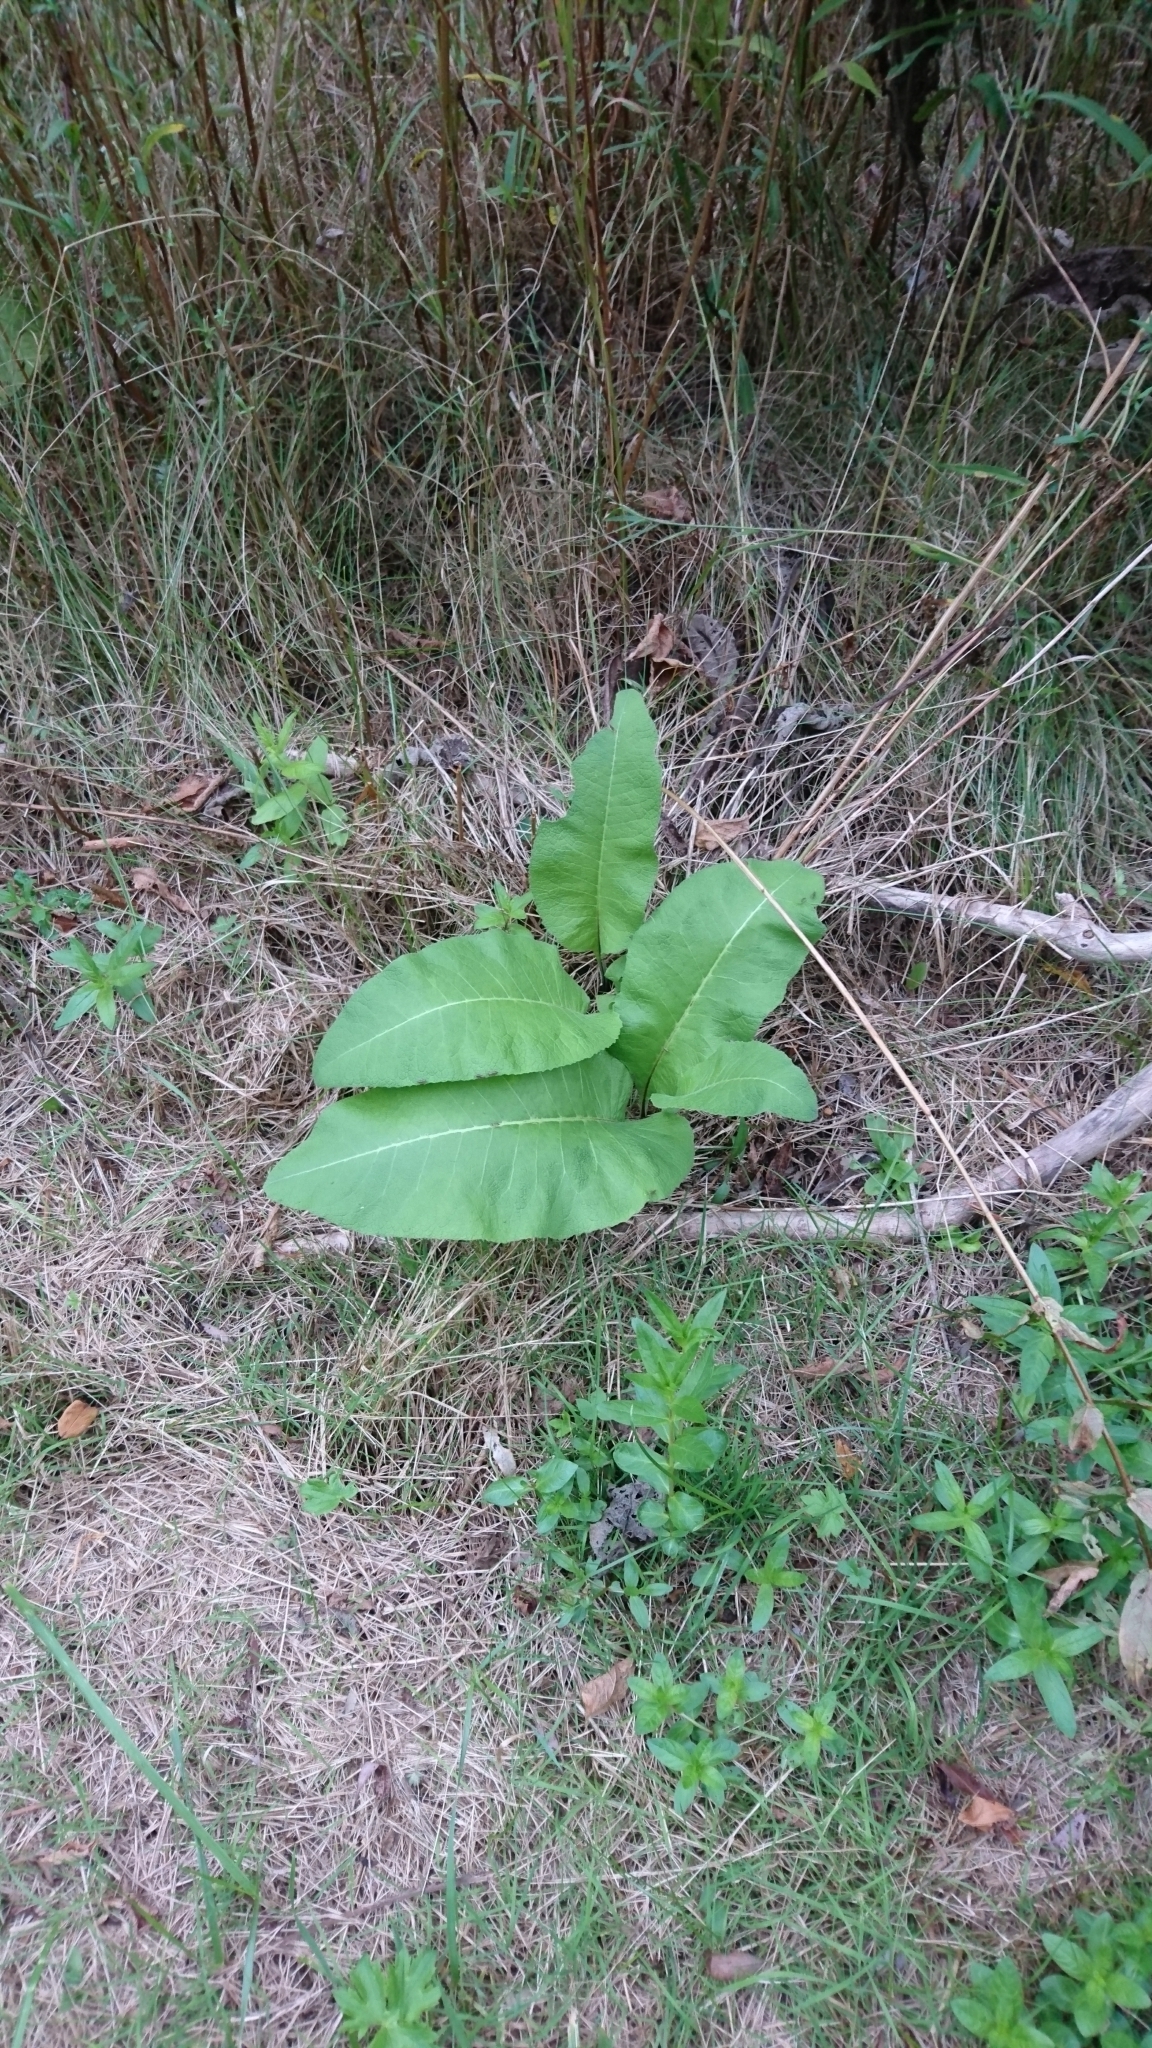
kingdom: Plantae
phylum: Tracheophyta
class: Magnoliopsida
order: Asterales
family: Asteraceae
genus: Inula
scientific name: Inula helenium
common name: Elecampane
